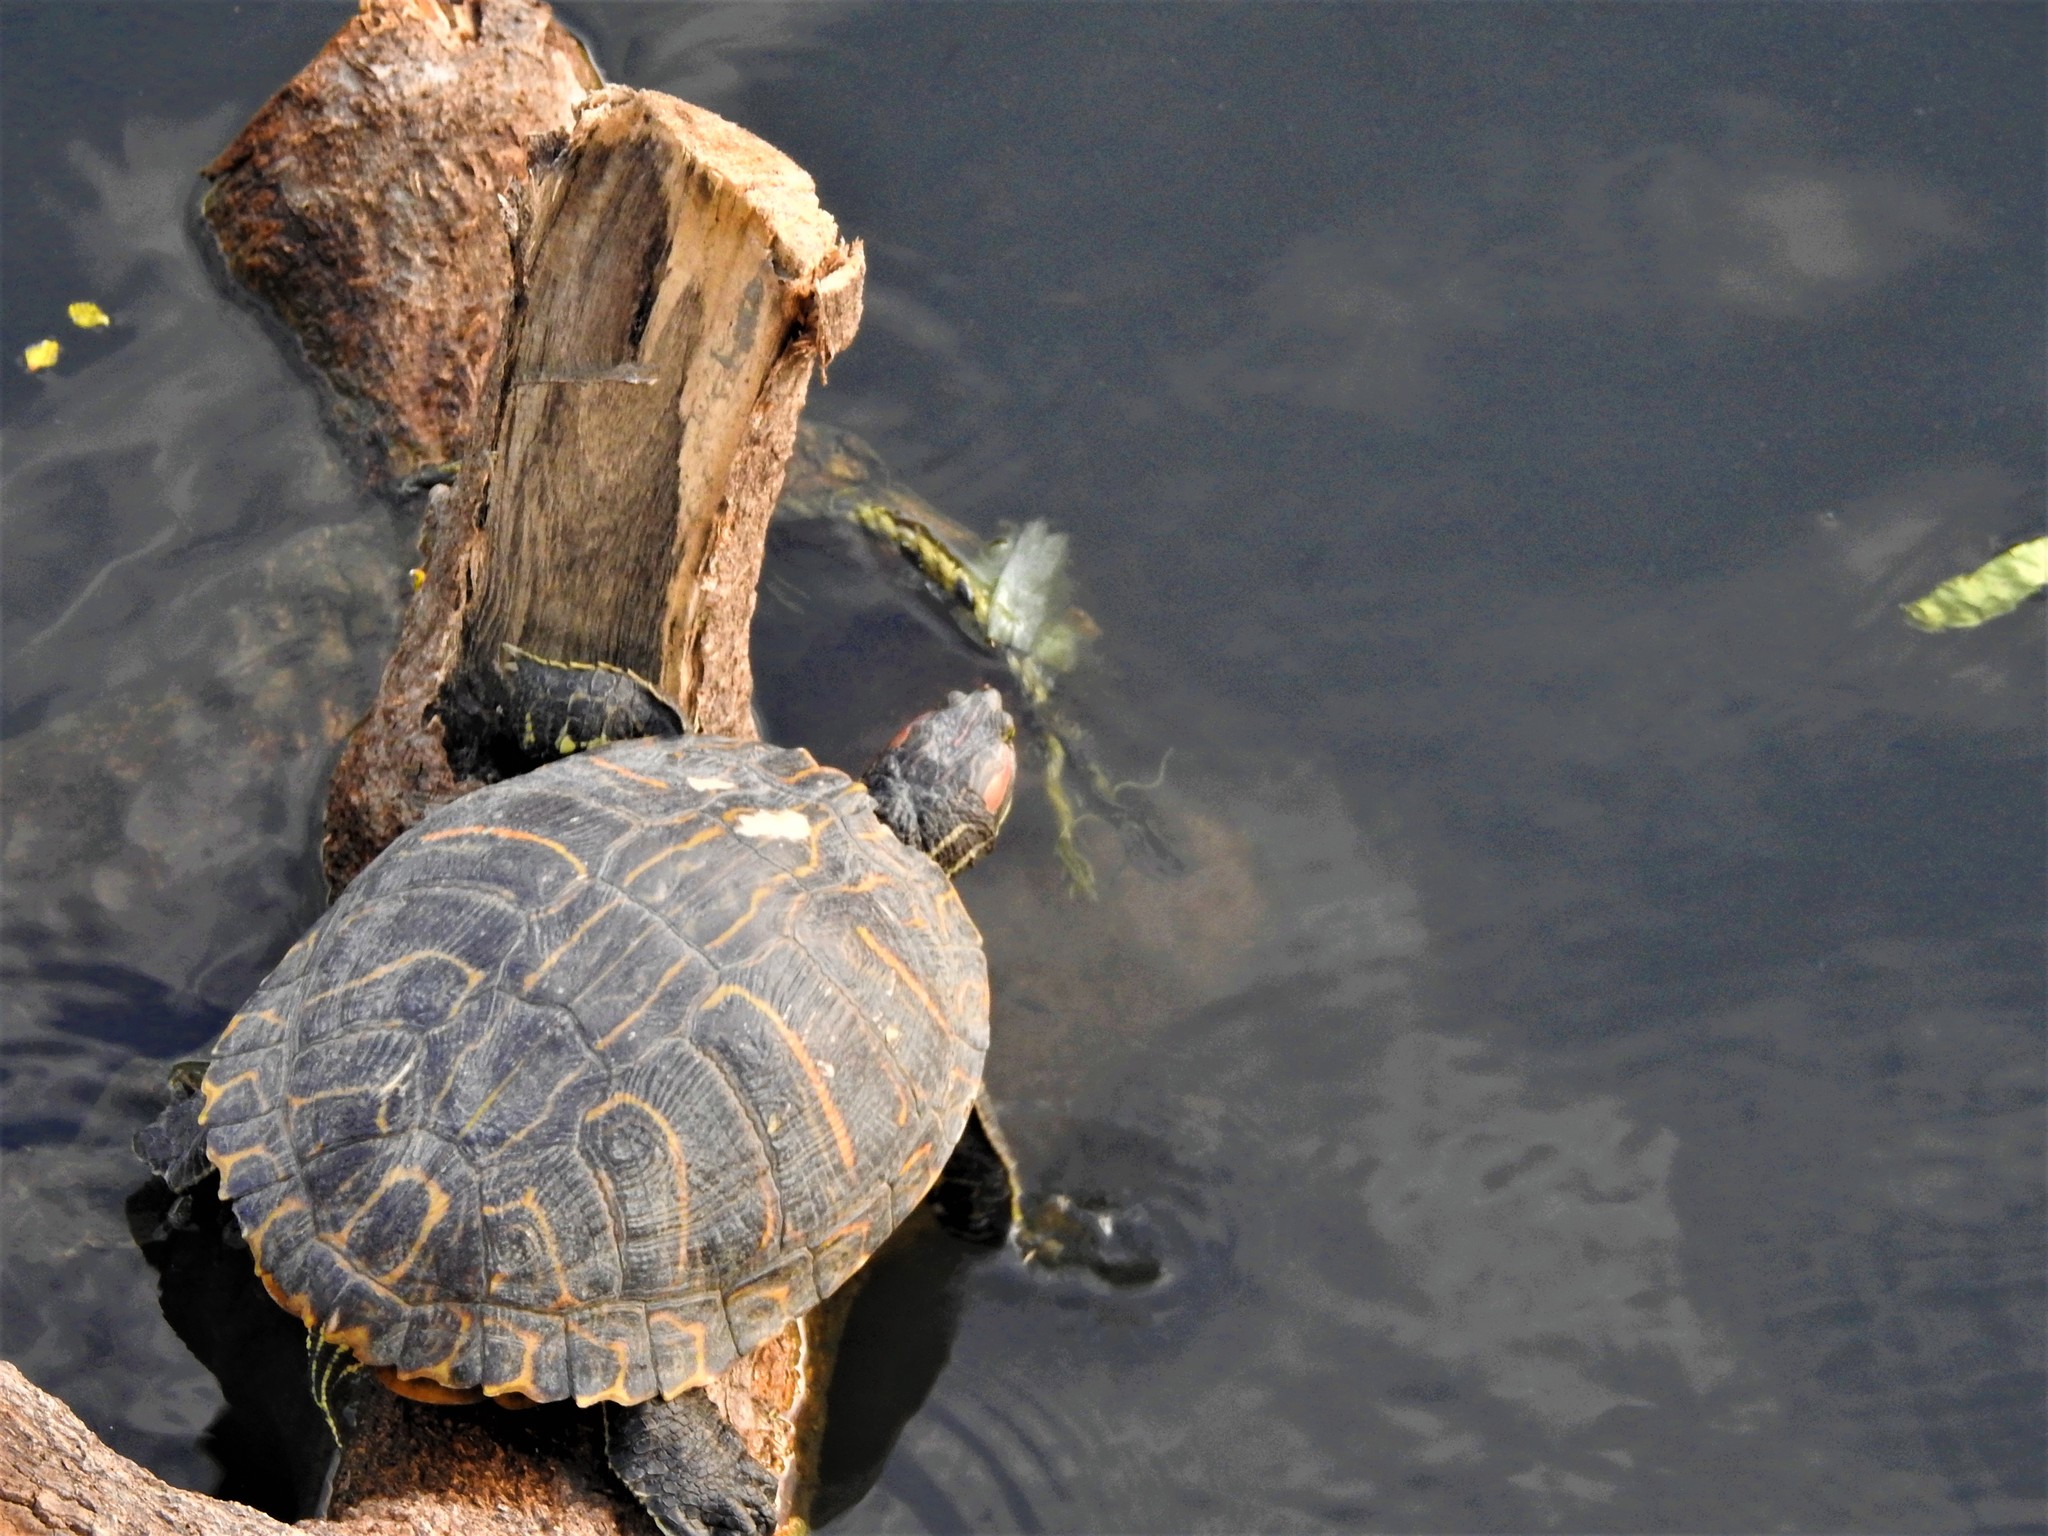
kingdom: Animalia
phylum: Chordata
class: Testudines
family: Emydidae
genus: Trachemys
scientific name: Trachemys scripta
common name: Slider
